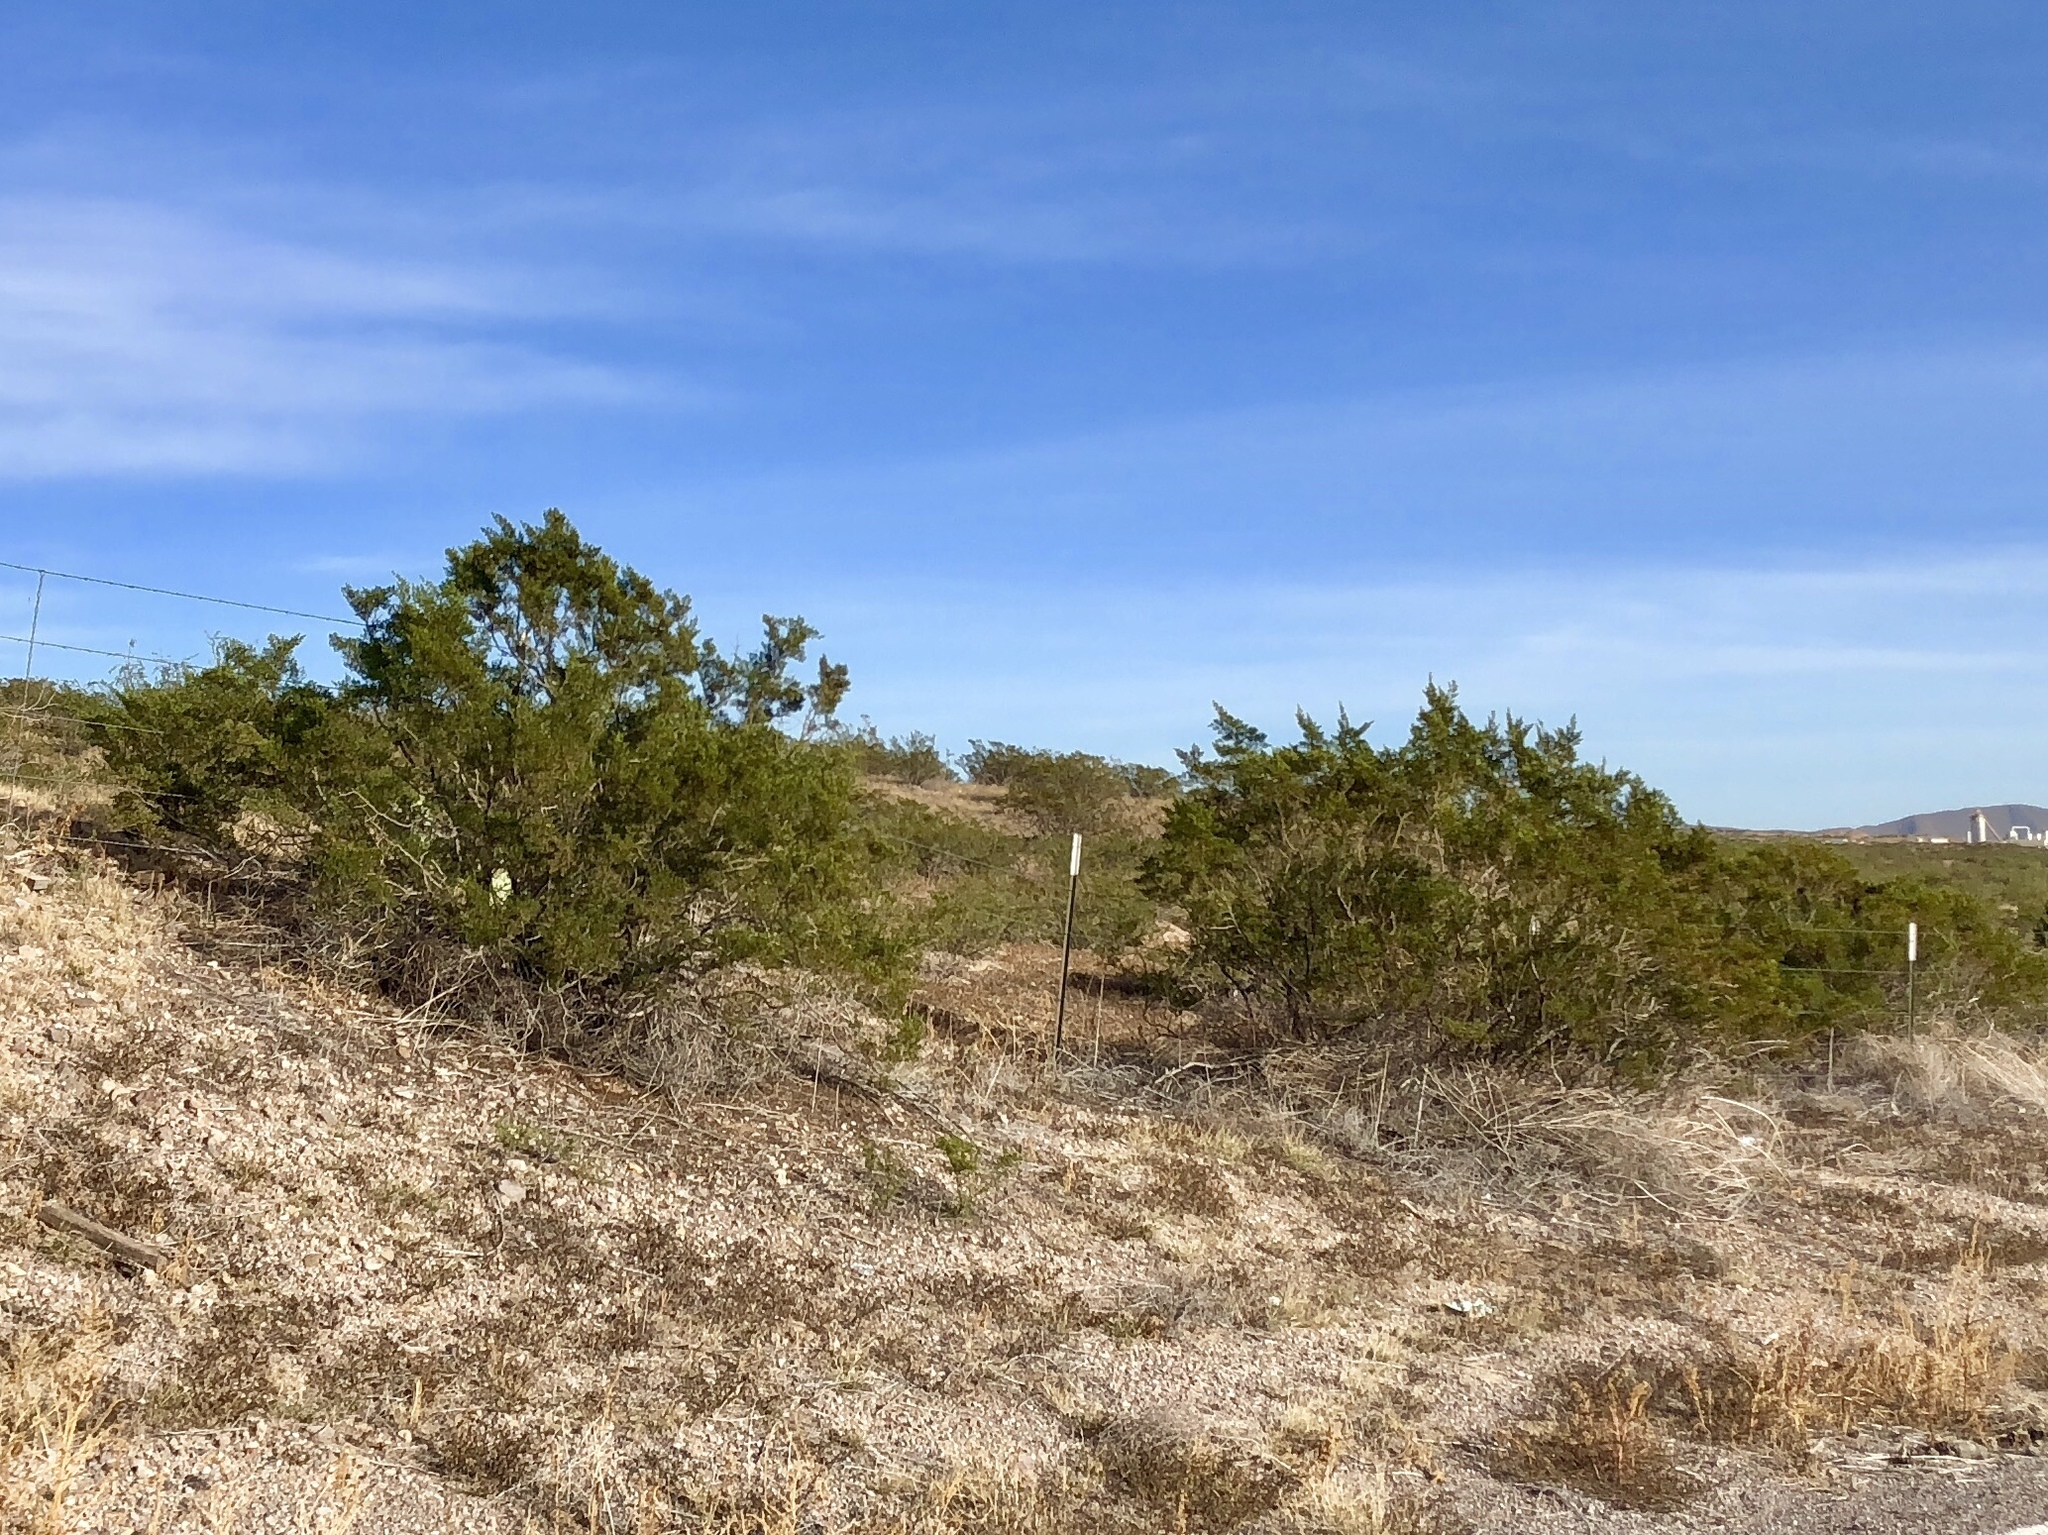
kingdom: Plantae
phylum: Tracheophyta
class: Magnoliopsida
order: Zygophyllales
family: Zygophyllaceae
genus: Larrea
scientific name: Larrea tridentata
